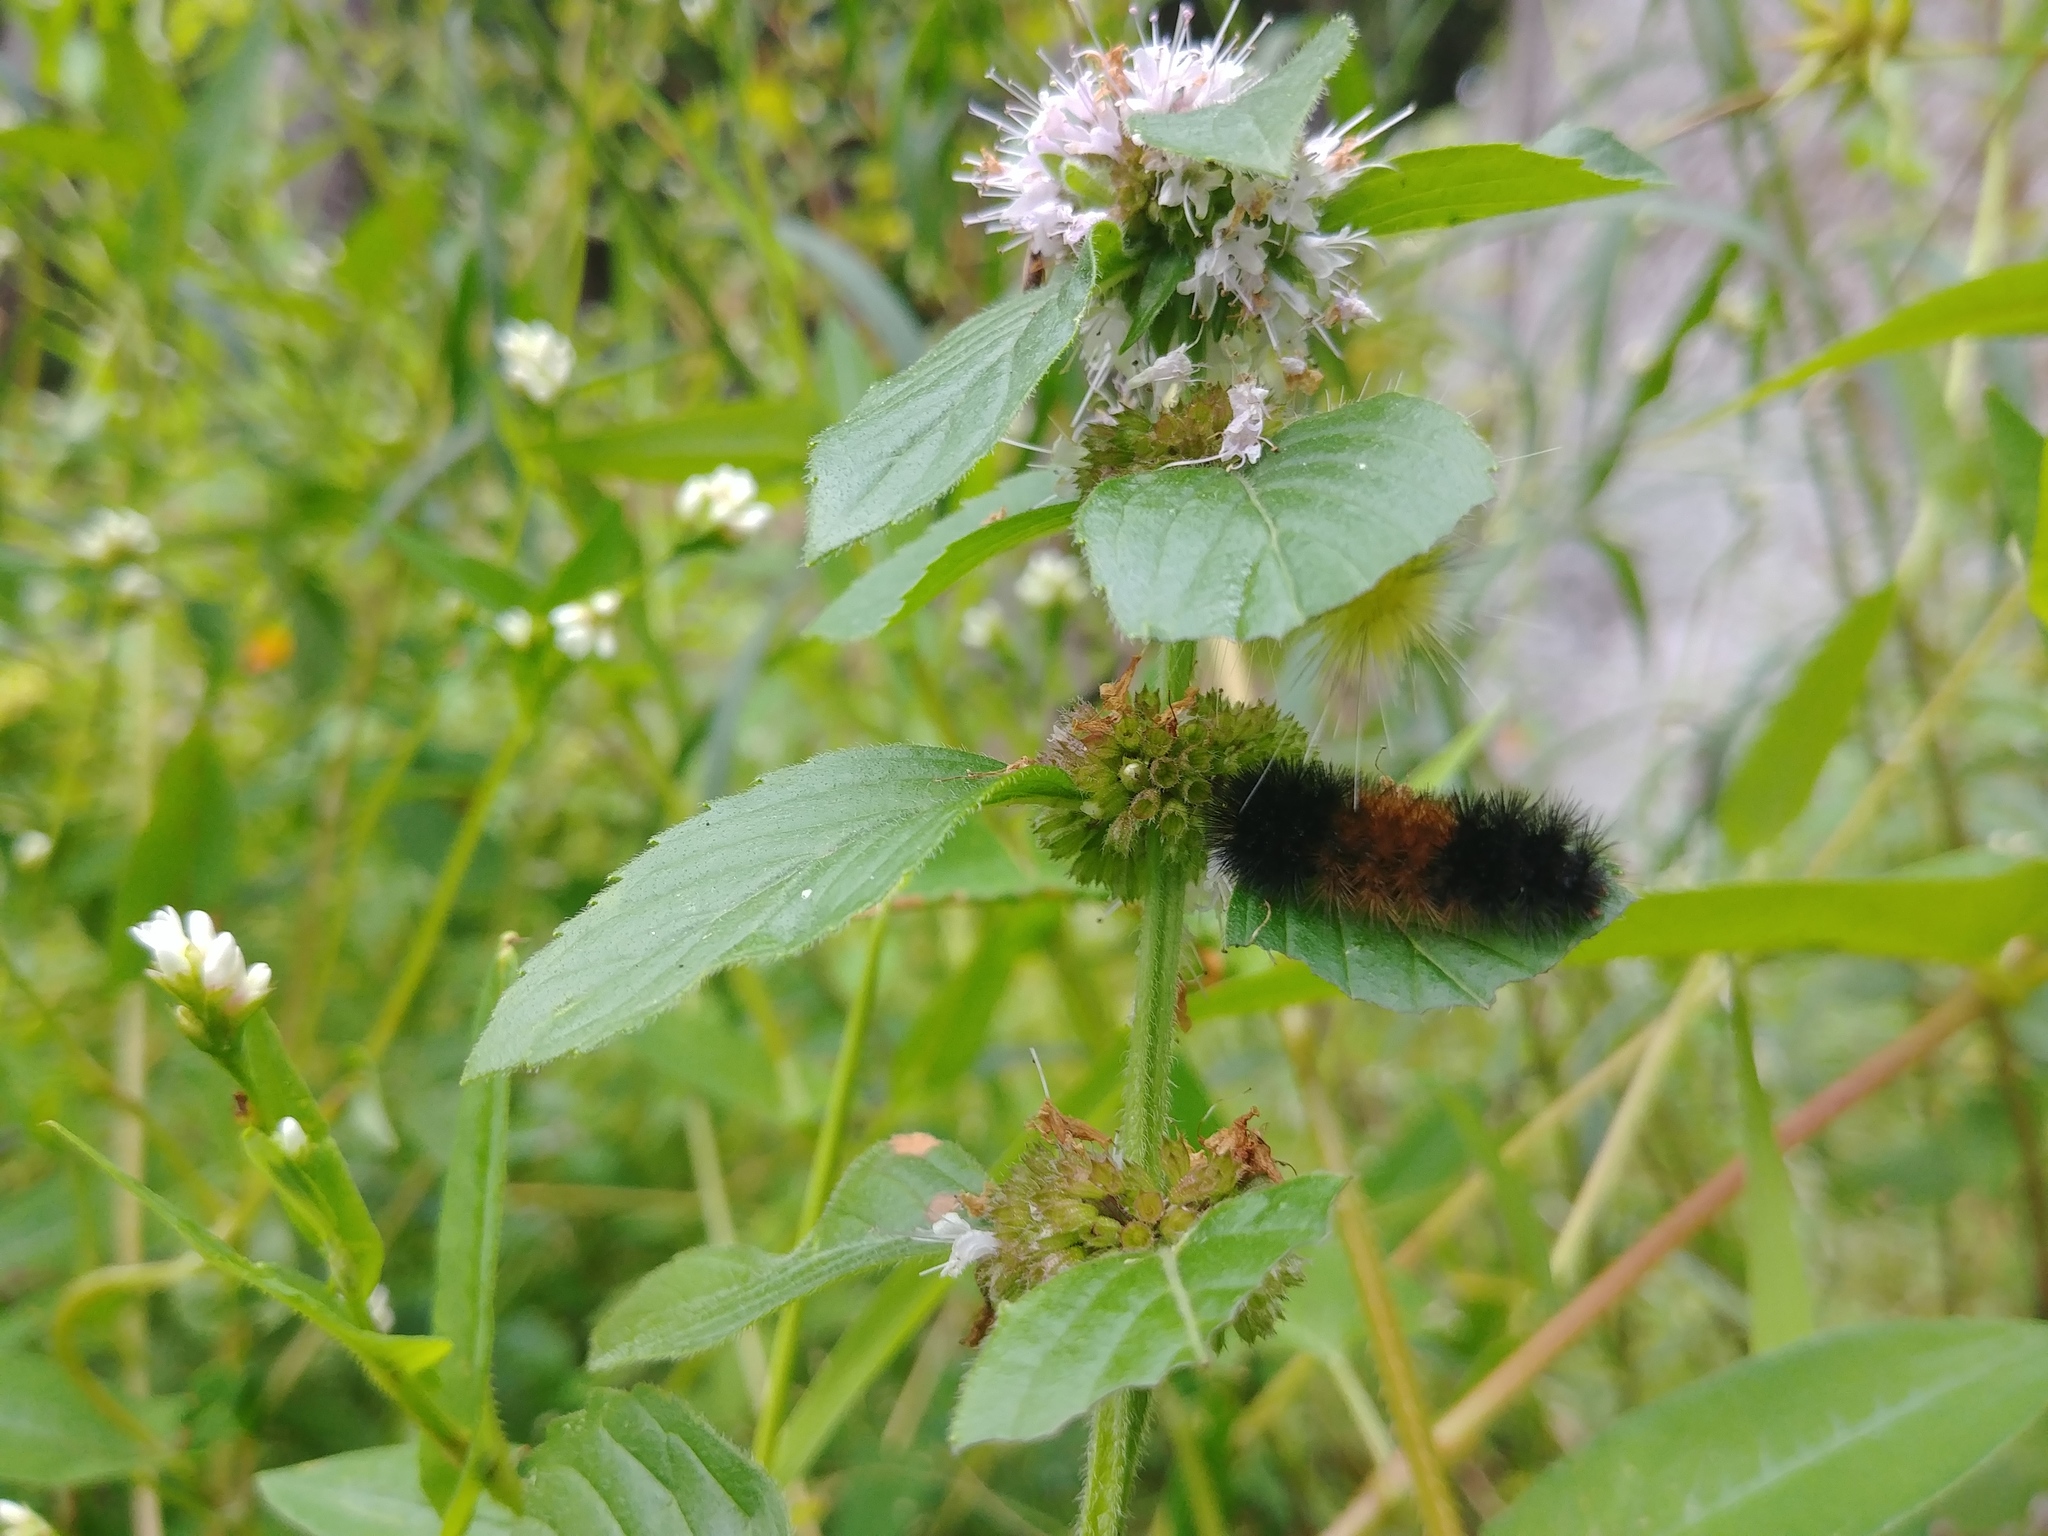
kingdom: Animalia
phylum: Arthropoda
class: Insecta
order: Lepidoptera
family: Erebidae
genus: Pyrrharctia
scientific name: Pyrrharctia isabella
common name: Isabella tiger moth
